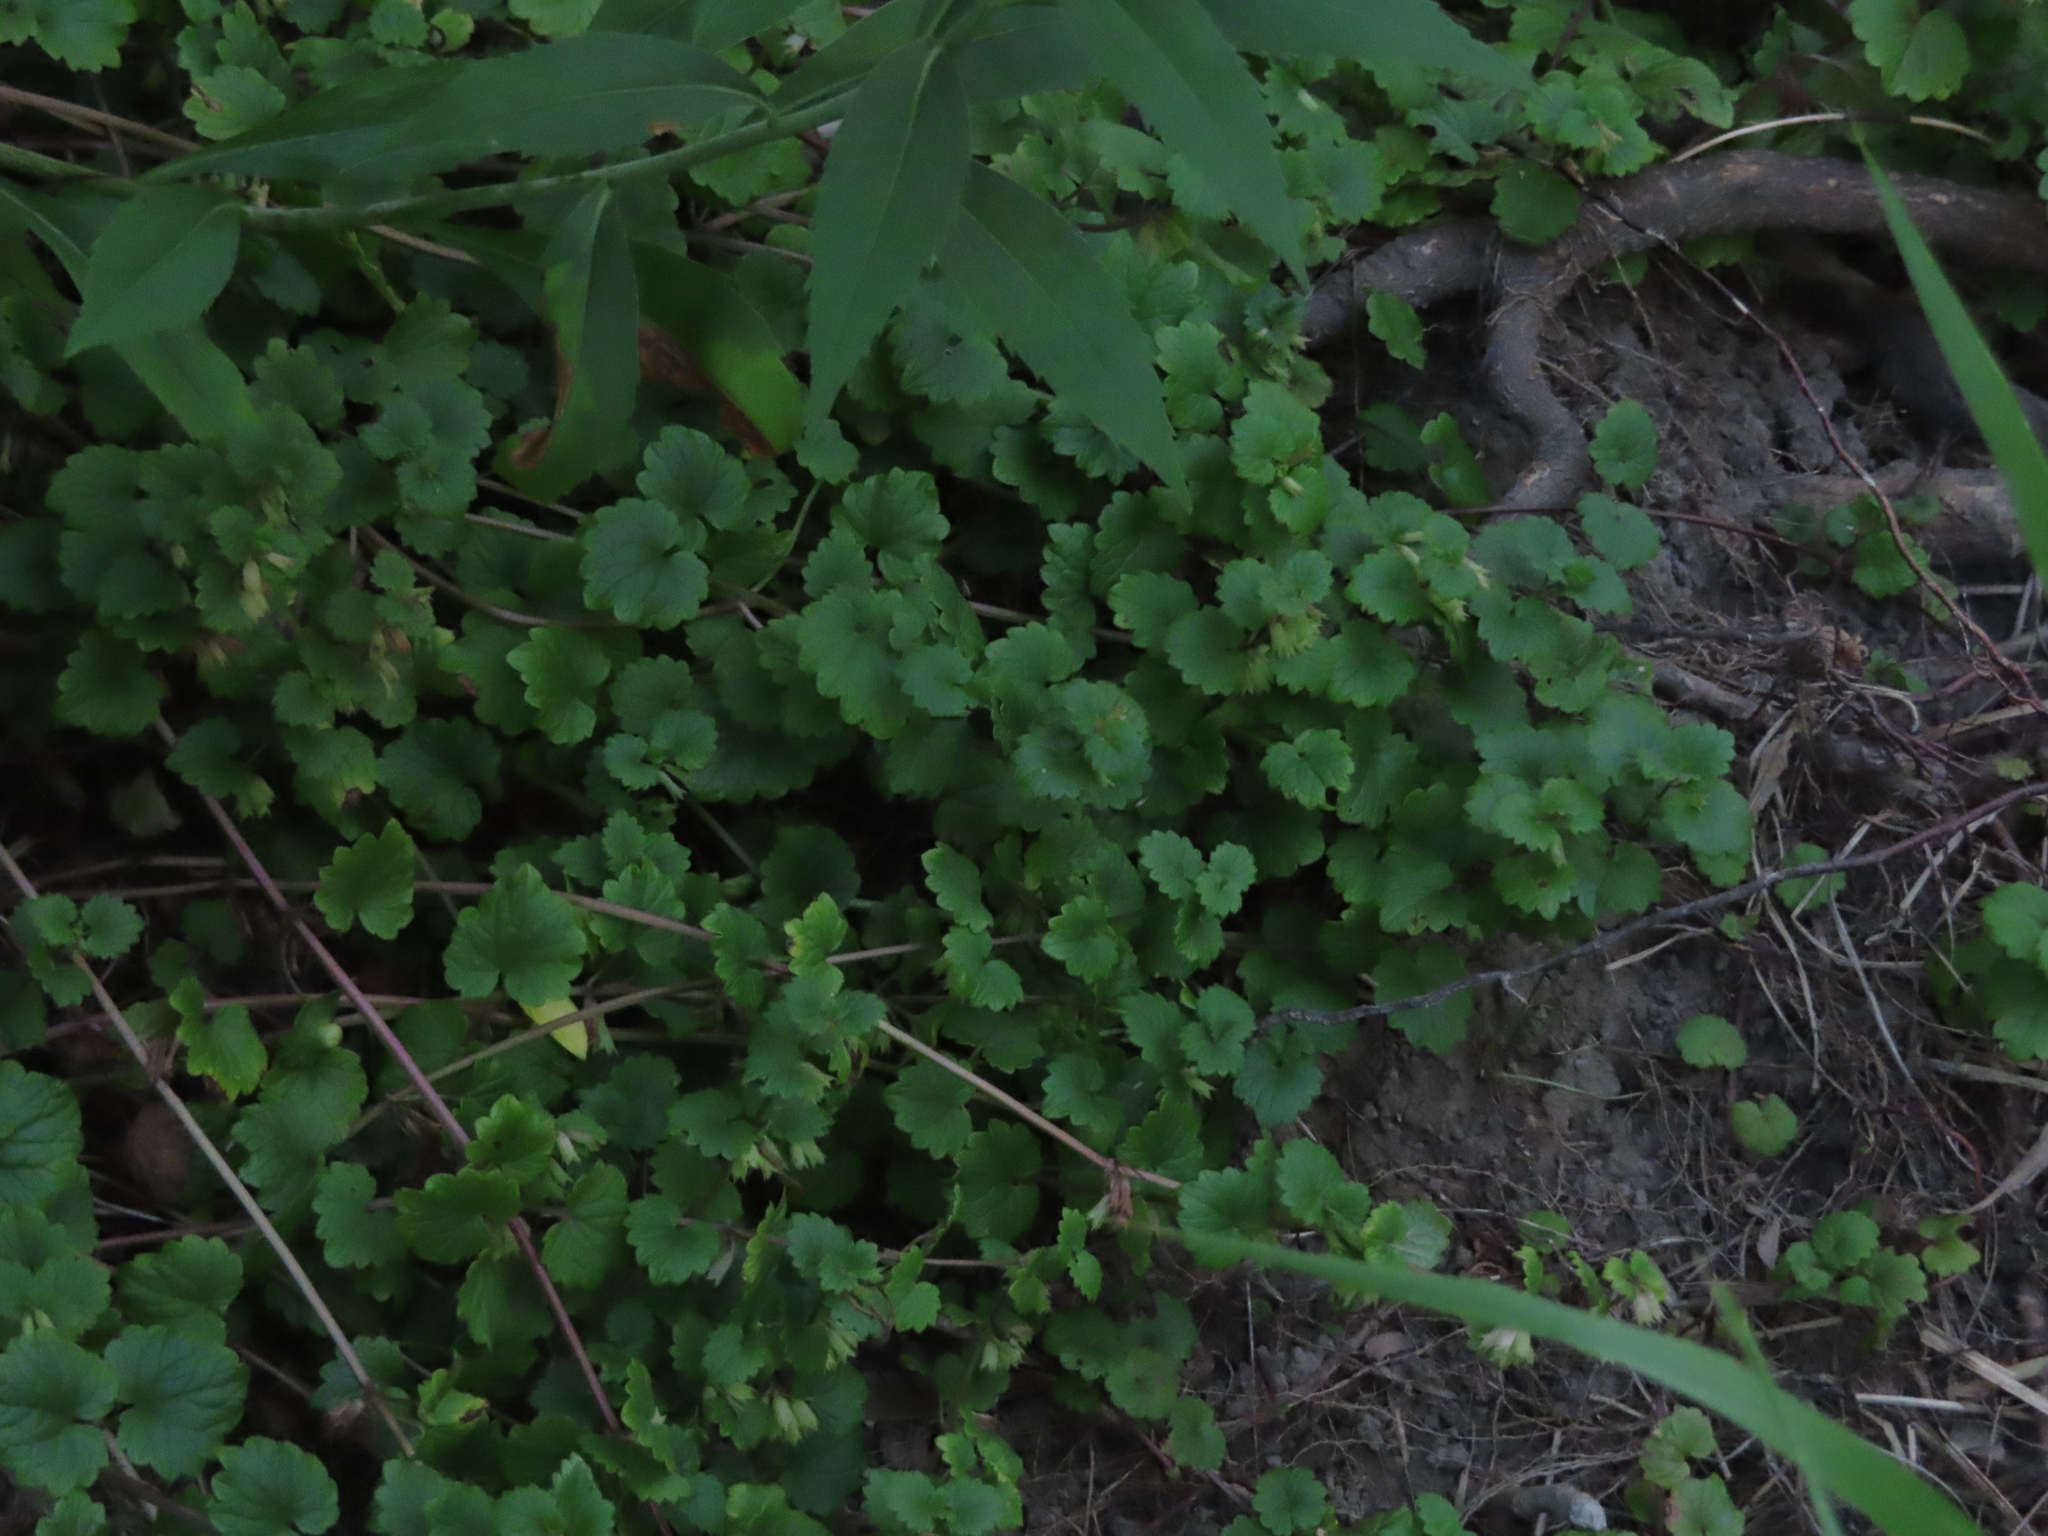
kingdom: Plantae
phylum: Tracheophyta
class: Magnoliopsida
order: Lamiales
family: Lamiaceae
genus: Glechoma
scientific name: Glechoma hederacea
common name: Ground ivy
